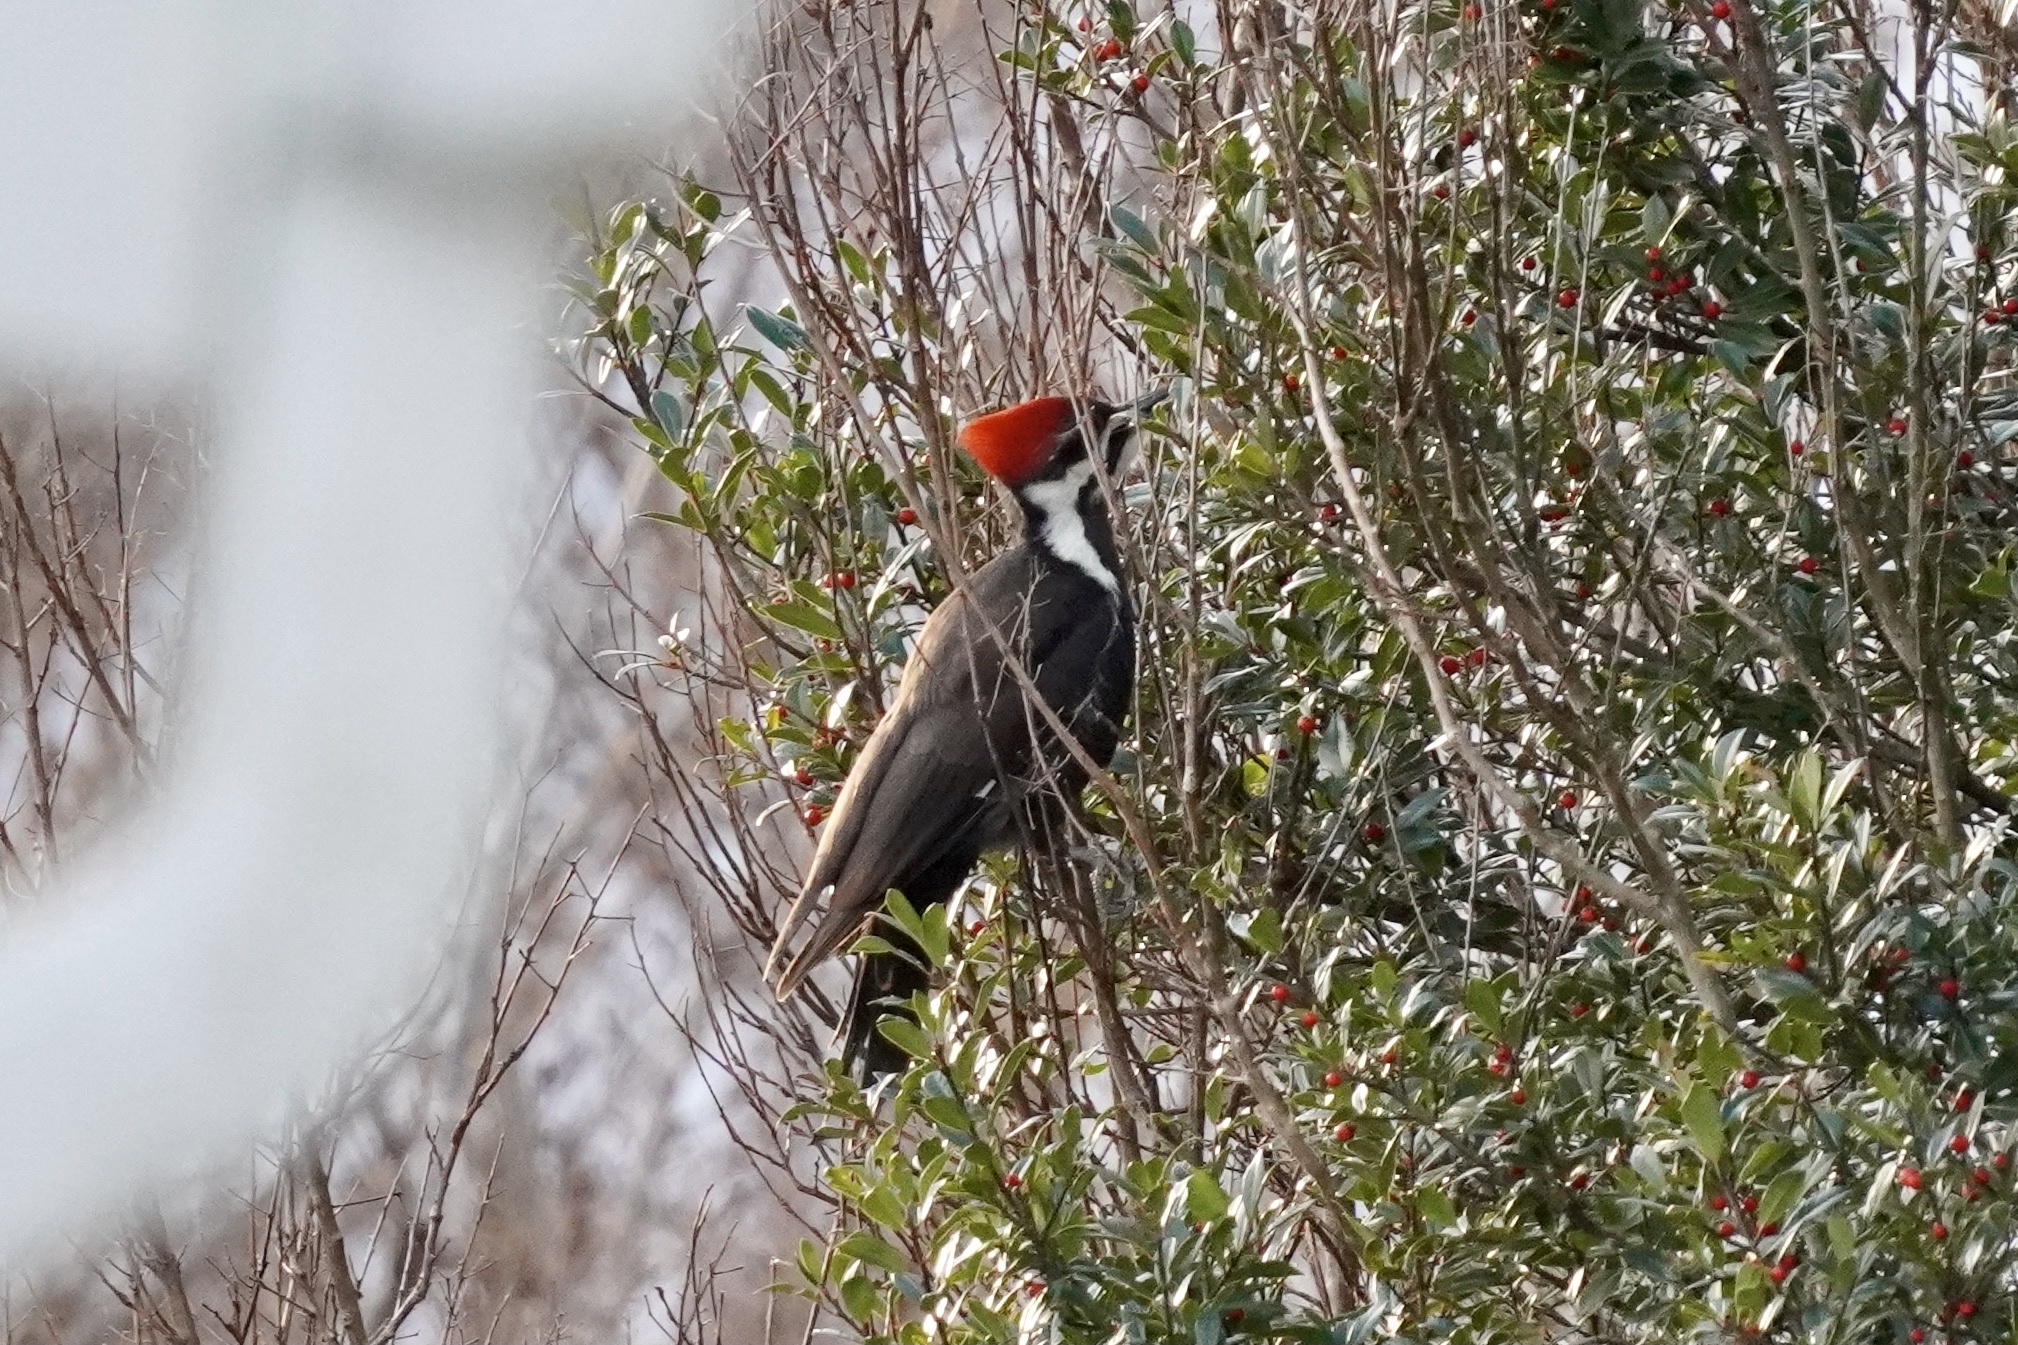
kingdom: Animalia
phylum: Chordata
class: Aves
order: Piciformes
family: Picidae
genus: Dryocopus
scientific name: Dryocopus pileatus
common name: Pileated woodpecker
